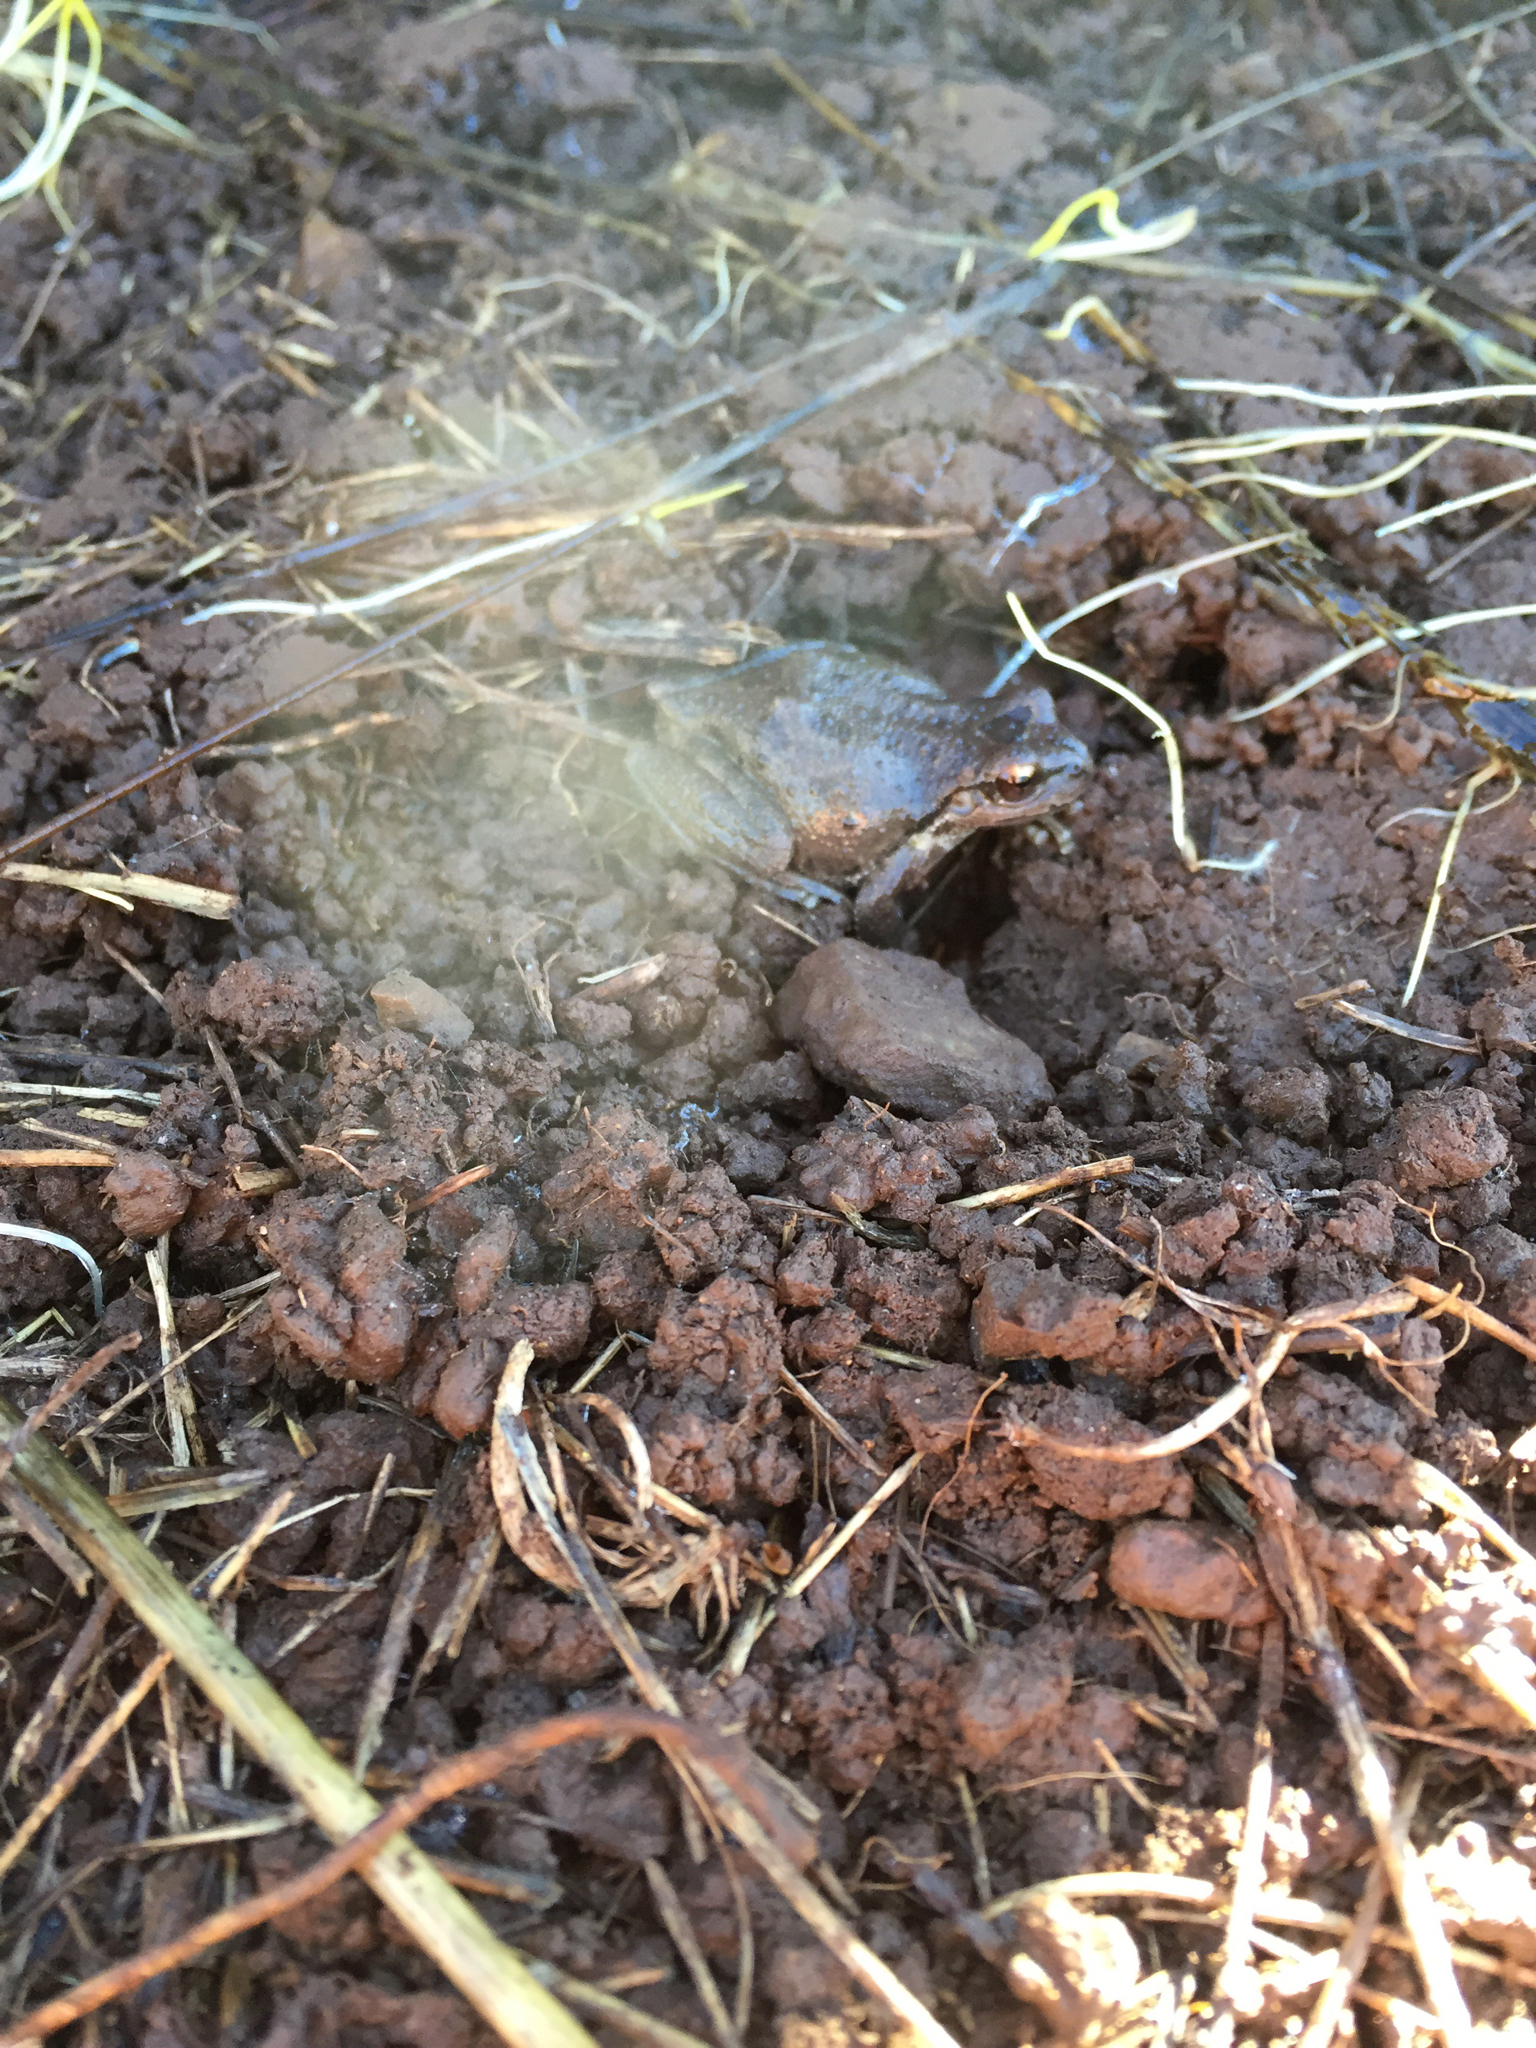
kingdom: Animalia
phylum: Chordata
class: Amphibia
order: Anura
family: Hylidae
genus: Pseudacris
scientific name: Pseudacris regilla
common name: Pacific chorus frog
